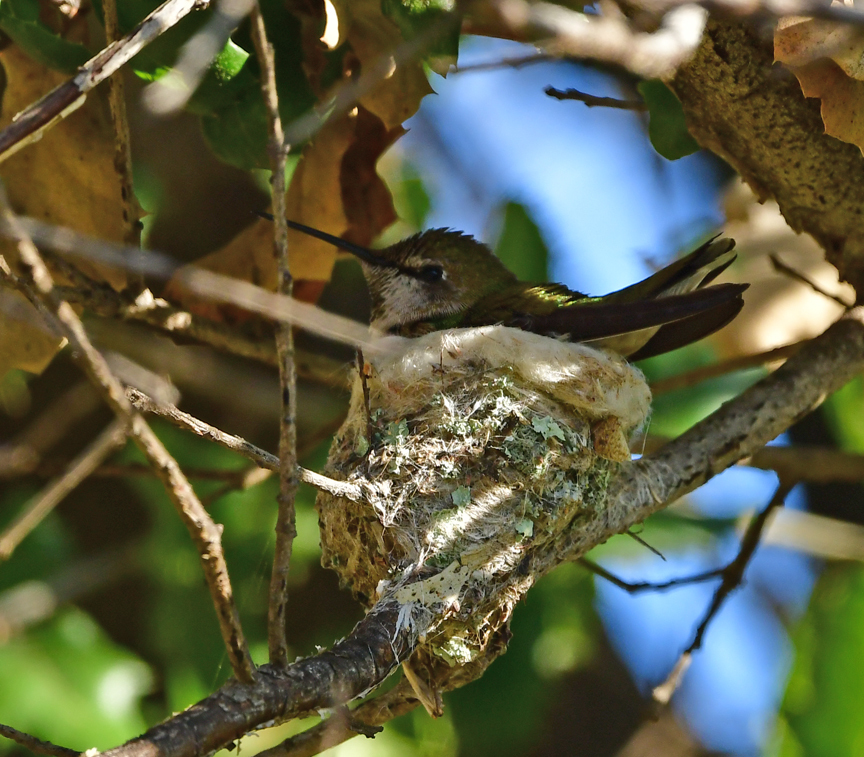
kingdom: Animalia
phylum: Chordata
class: Aves
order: Apodiformes
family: Trochilidae
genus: Calypte
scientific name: Calypte anna
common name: Anna's hummingbird
